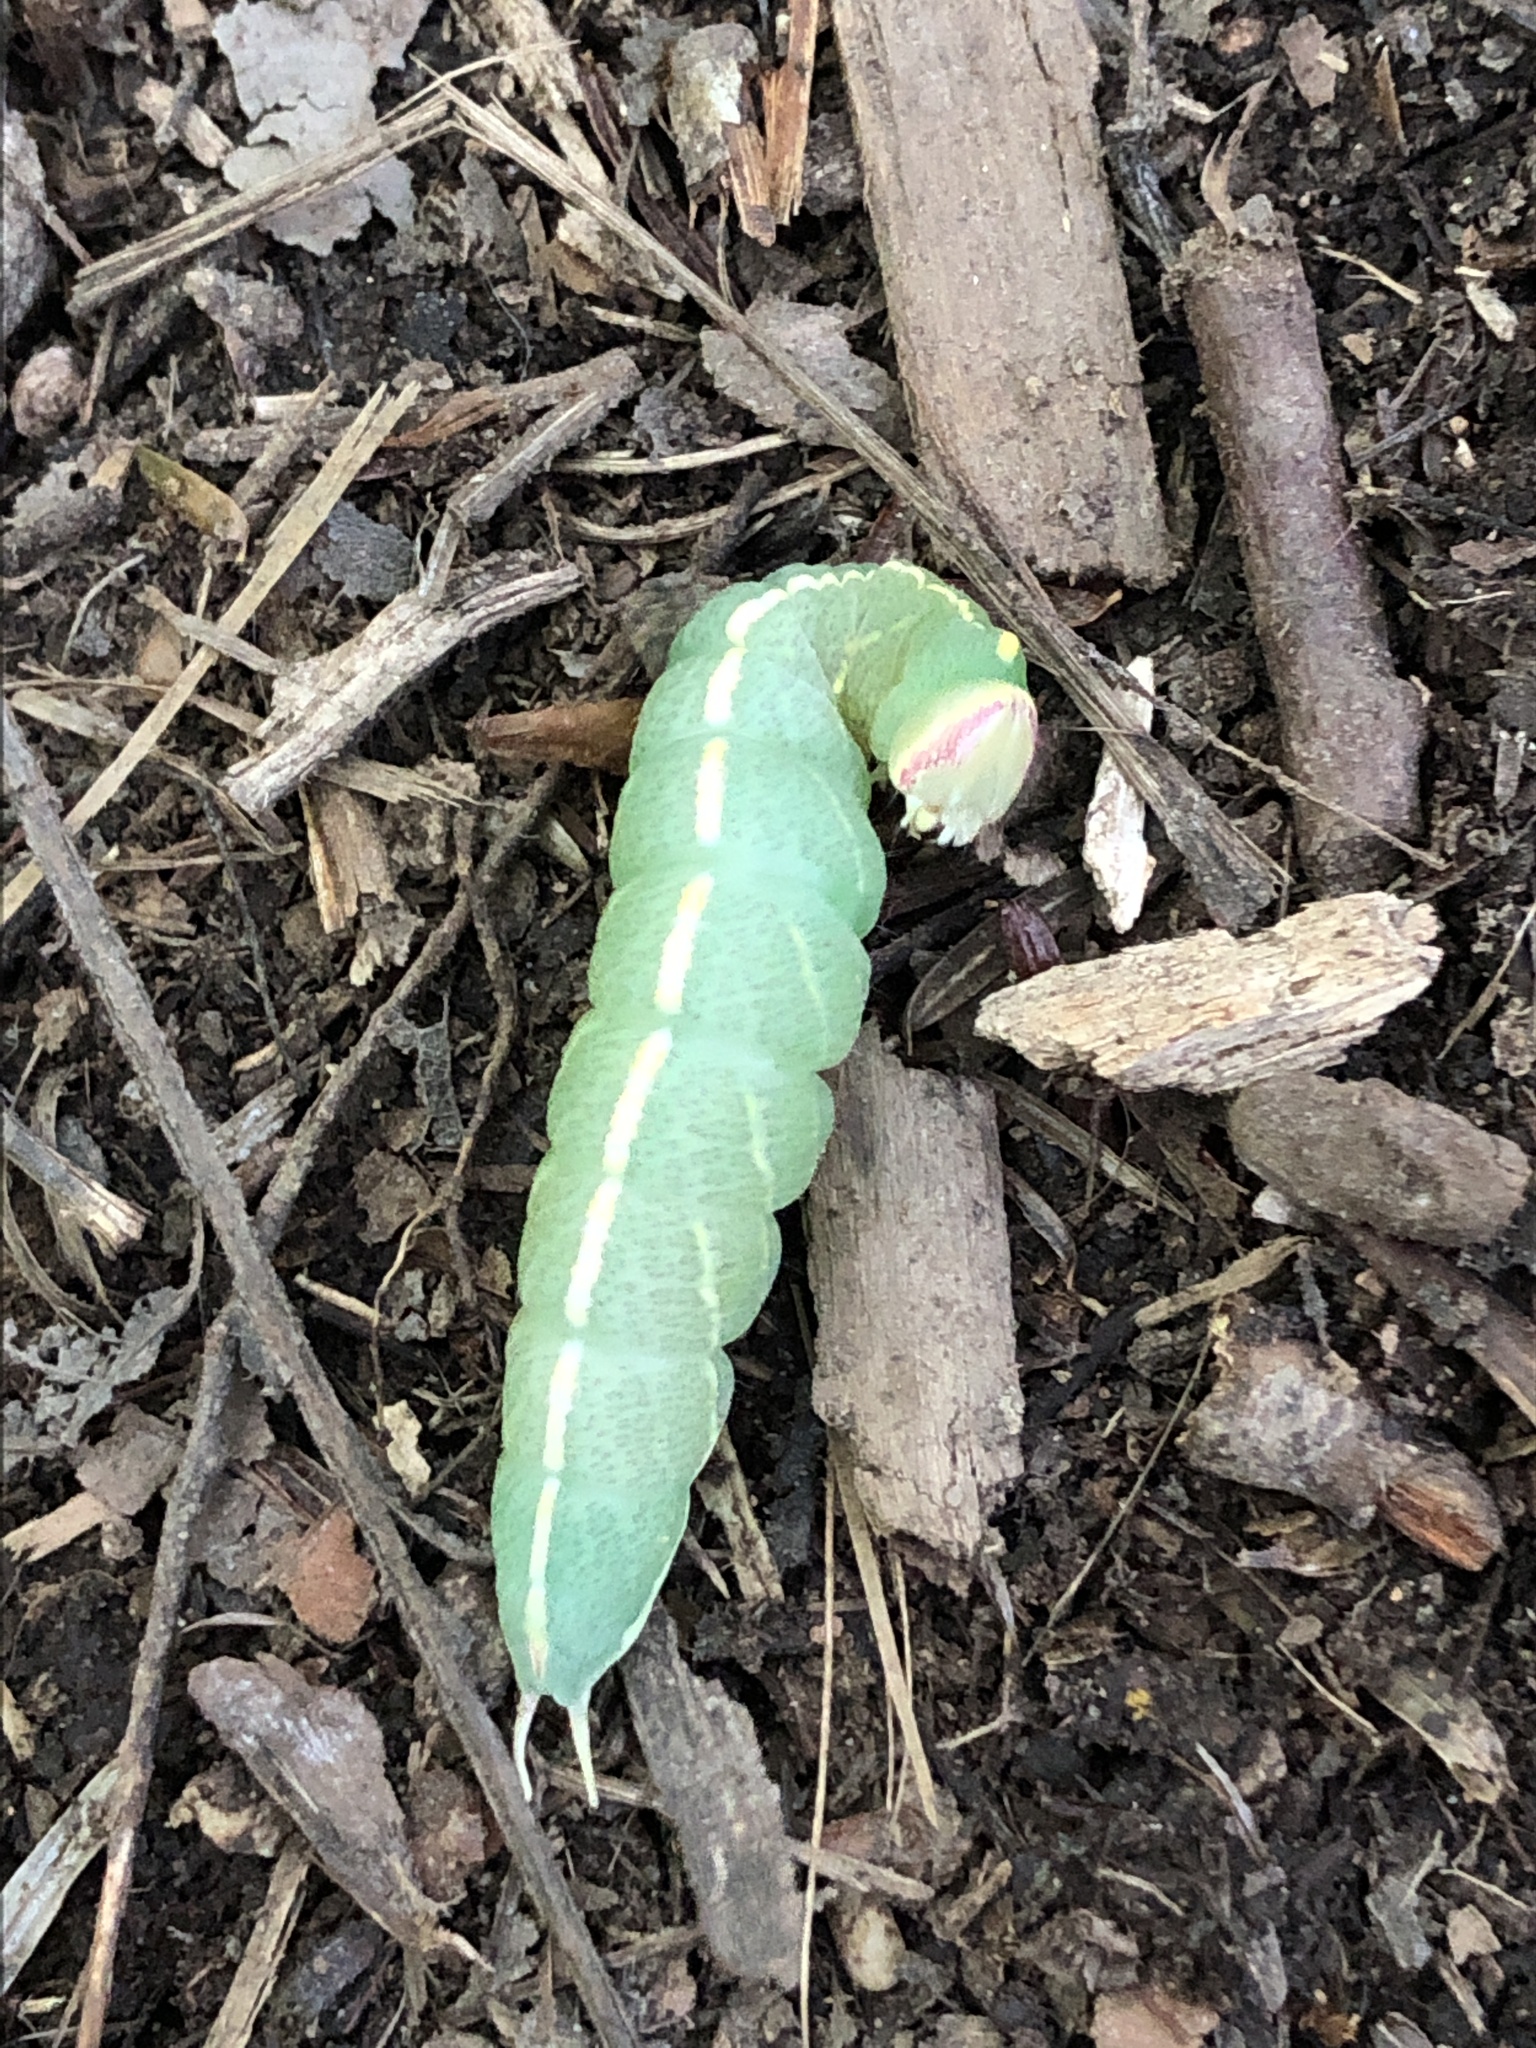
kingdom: Animalia
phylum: Arthropoda
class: Insecta
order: Lepidoptera
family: Notodontidae
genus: Macrurocampa
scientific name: Macrurocampa marthesia
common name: Mottled prominent
